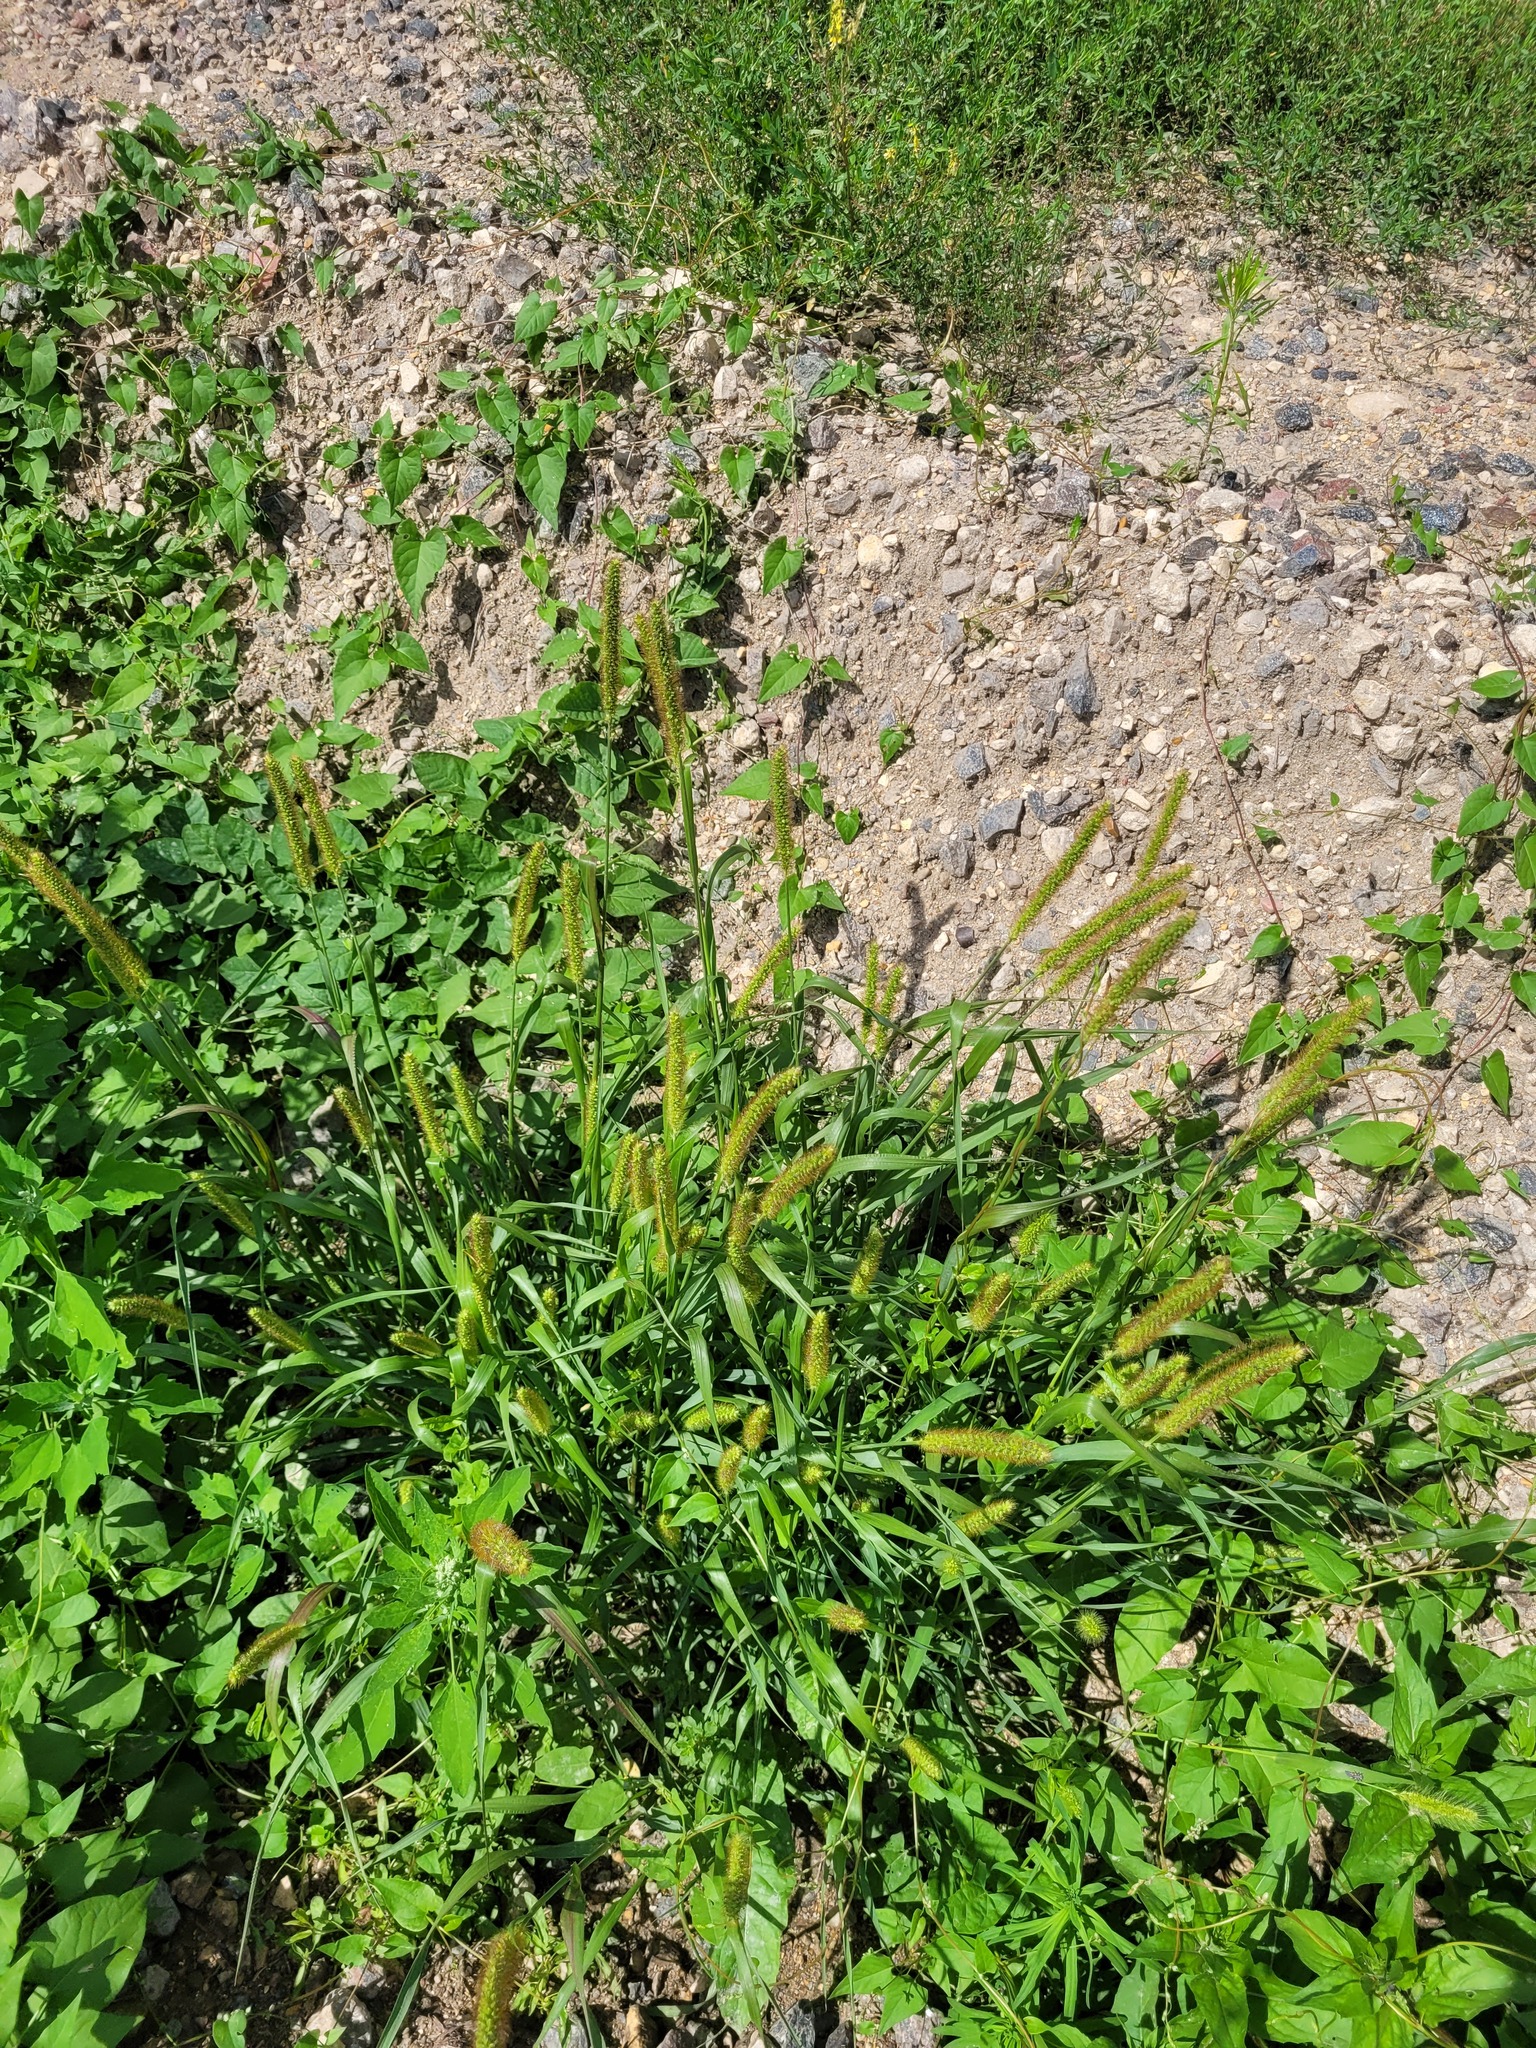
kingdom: Plantae
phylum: Tracheophyta
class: Liliopsida
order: Poales
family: Poaceae
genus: Setaria
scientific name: Setaria pumila
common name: Yellow bristle-grass
